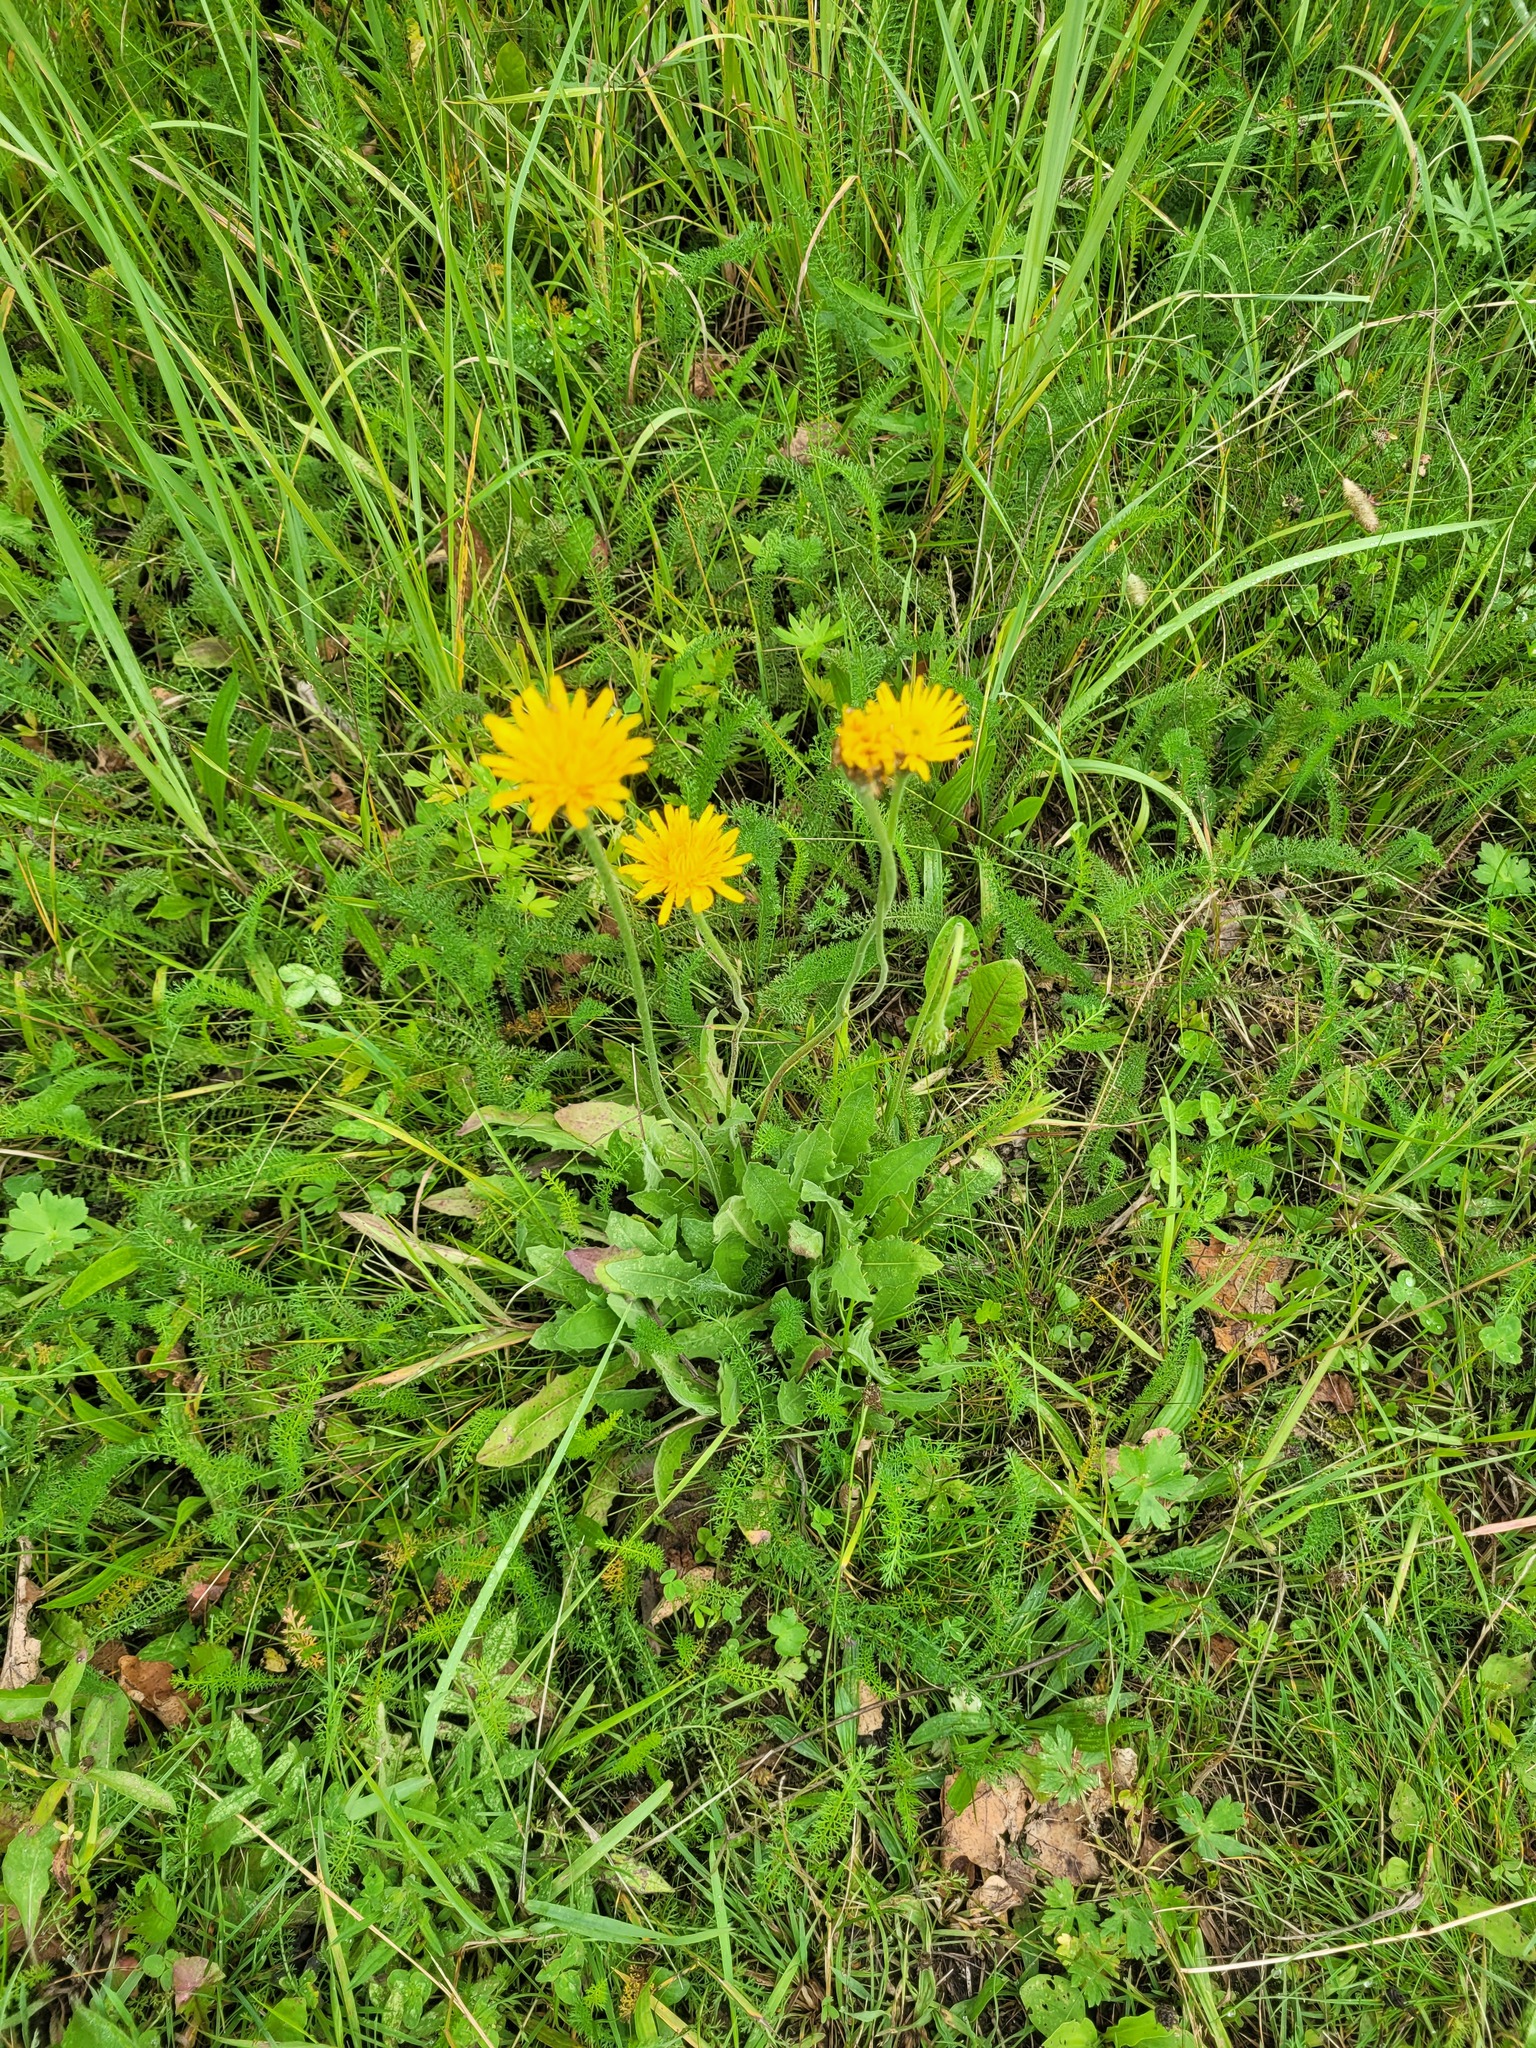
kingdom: Plantae
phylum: Tracheophyta
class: Magnoliopsida
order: Asterales
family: Asteraceae
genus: Leontodon
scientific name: Leontodon hispidus
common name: Rough hawkbit
